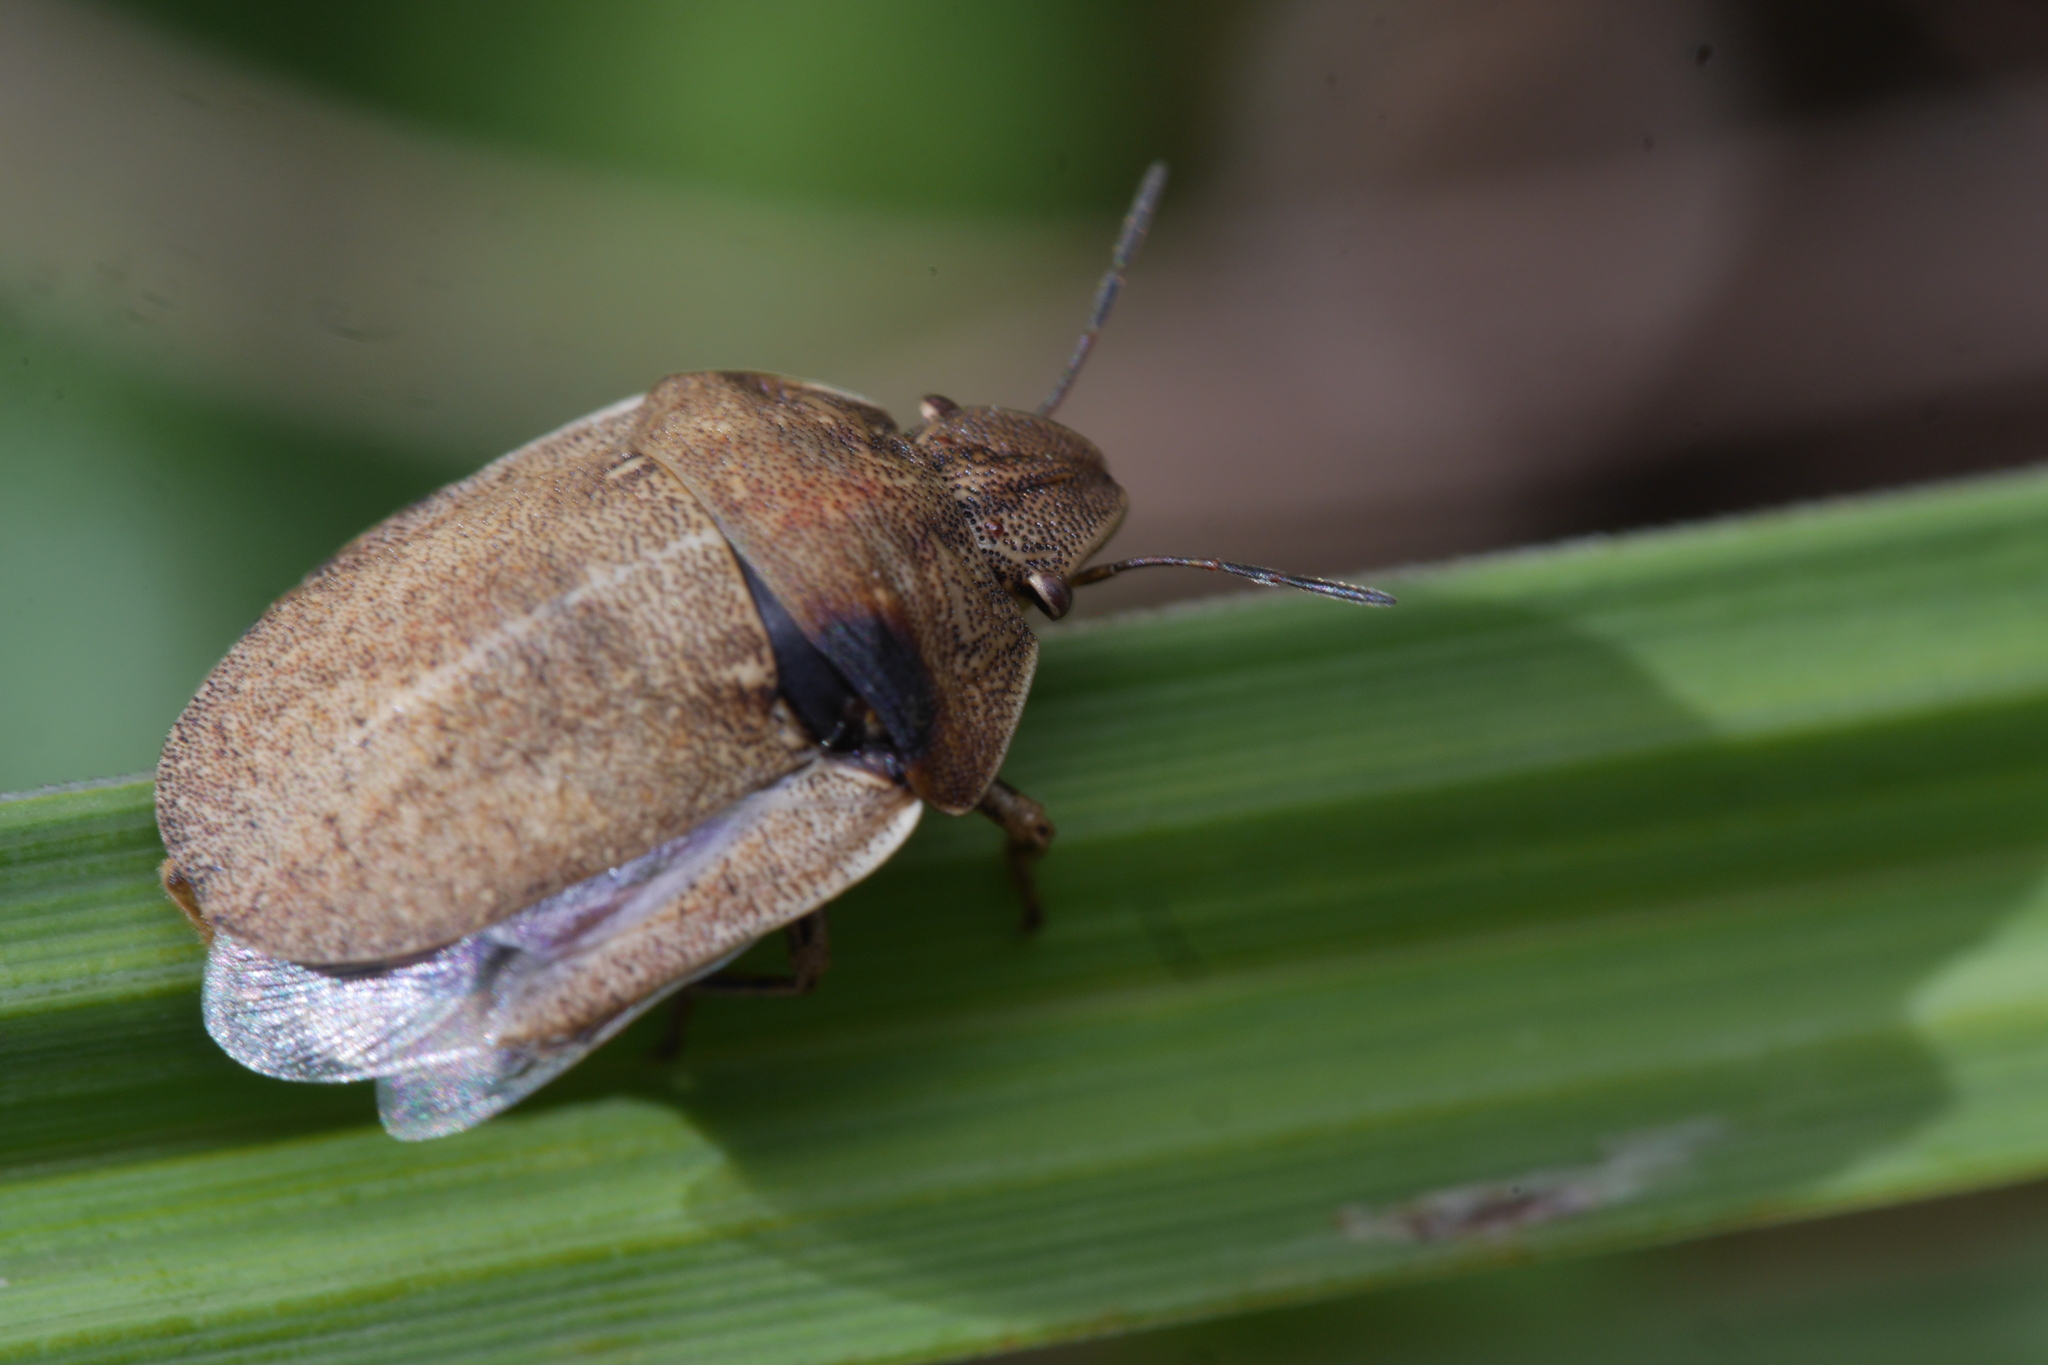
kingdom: Animalia
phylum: Arthropoda
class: Insecta
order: Hemiptera
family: Scutelleridae
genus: Eurygaster
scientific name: Eurygaster testudinaria
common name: Tortoise bug
